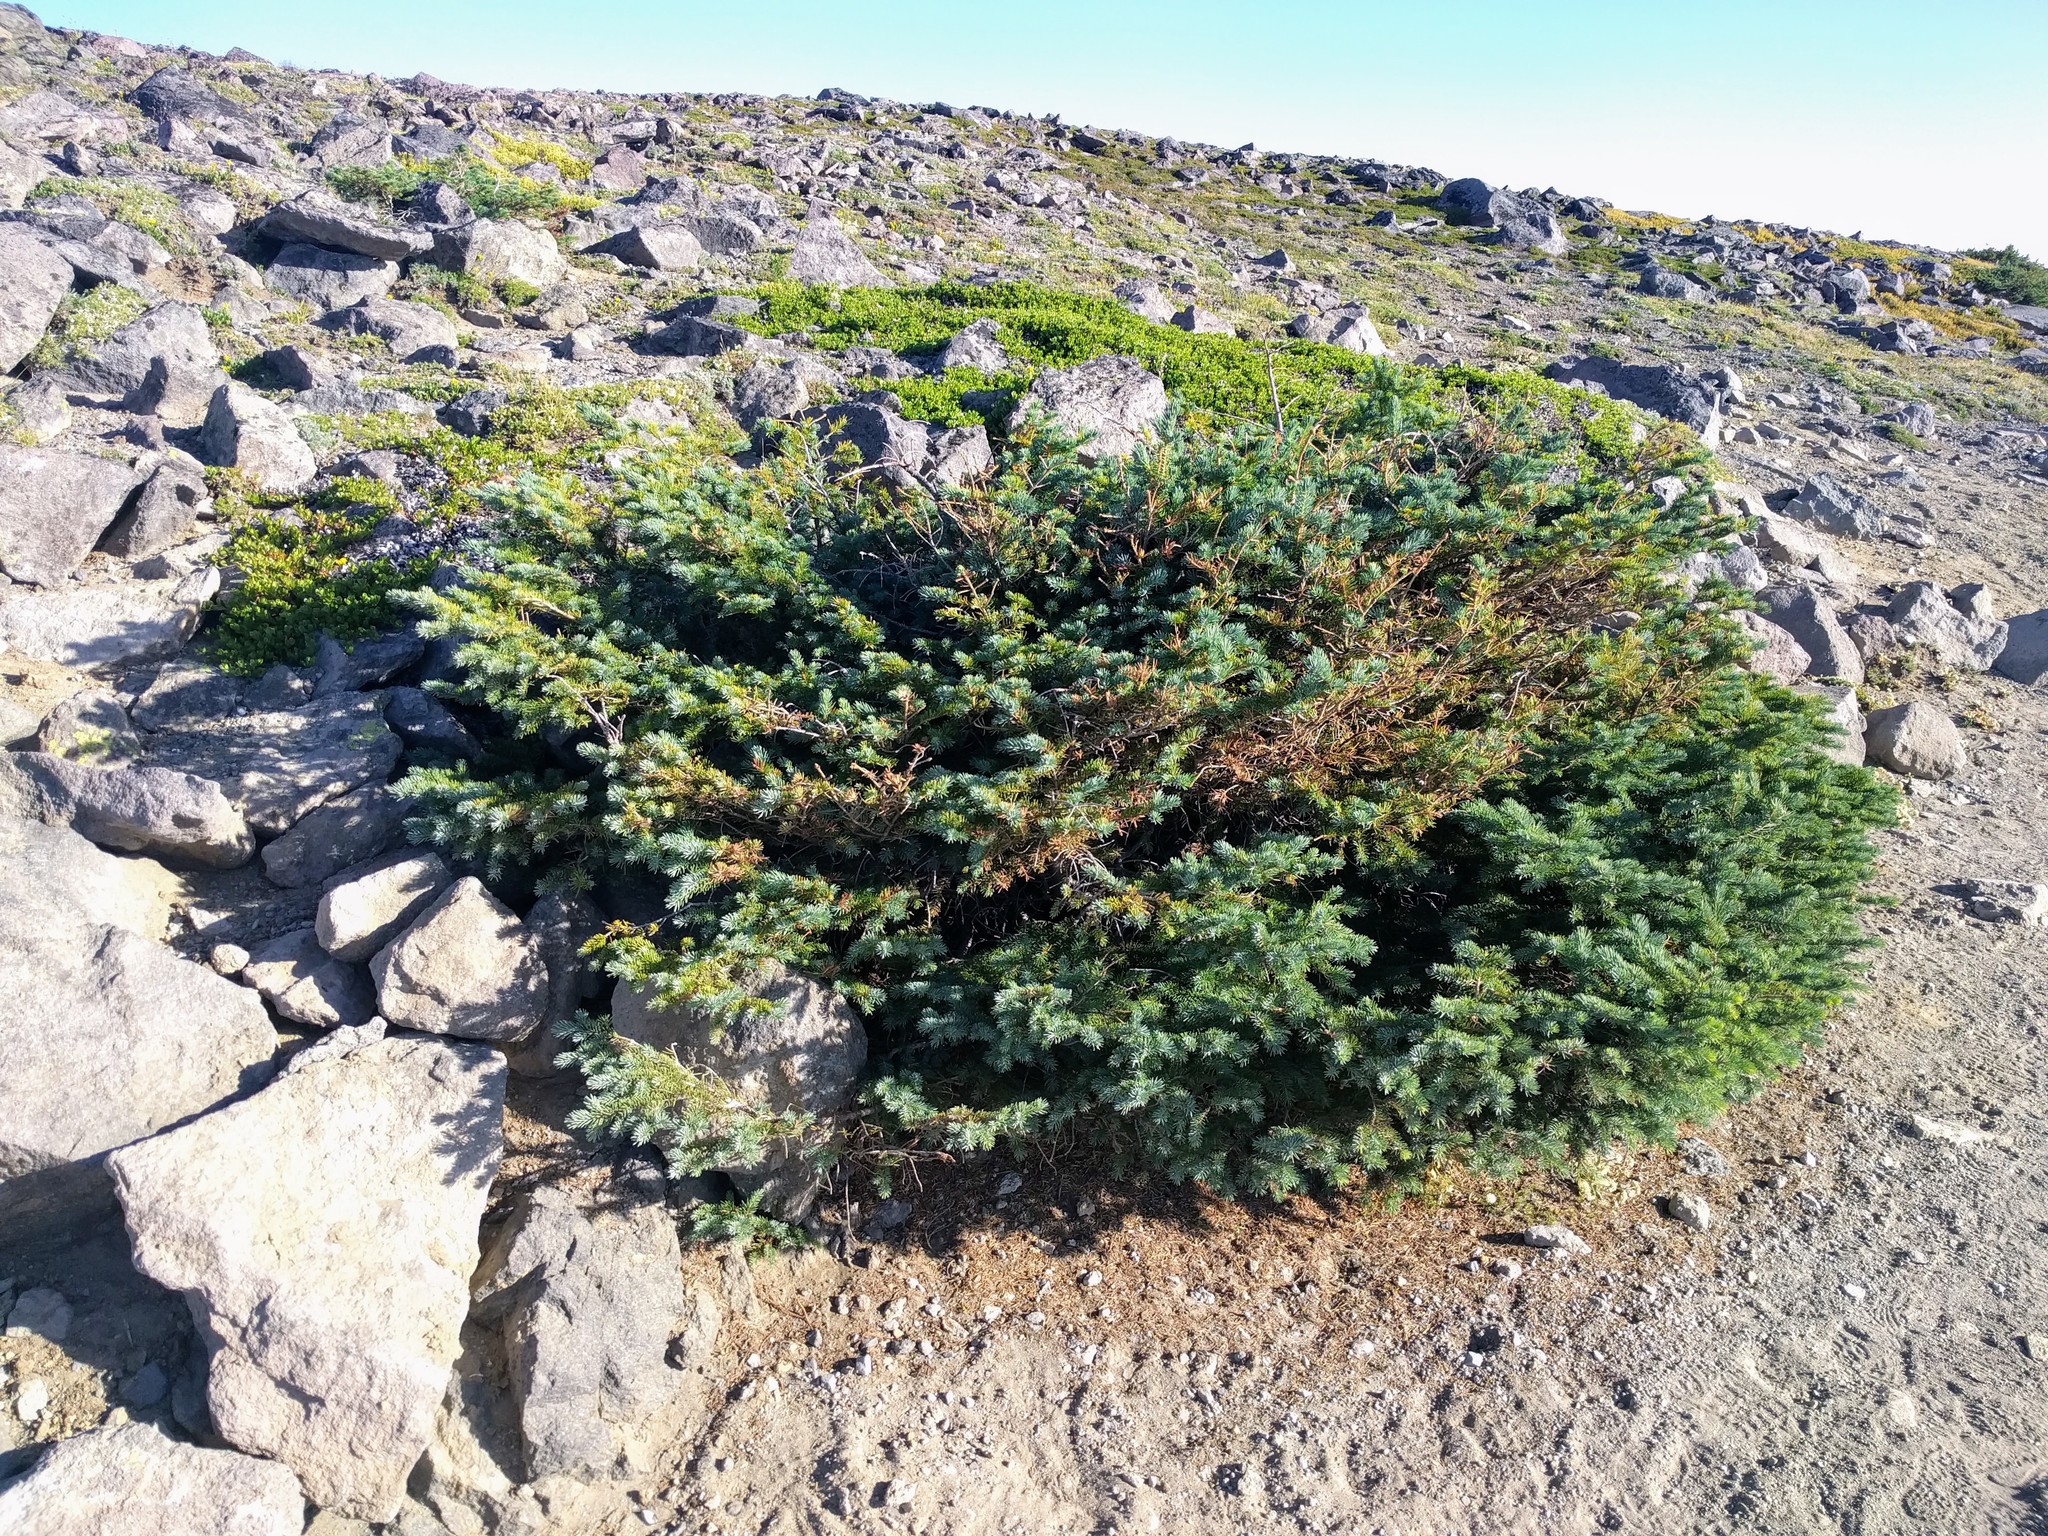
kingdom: Plantae
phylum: Tracheophyta
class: Pinopsida
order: Pinales
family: Pinaceae
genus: Abies
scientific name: Abies lasiocarpa
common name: Subalpine fir
